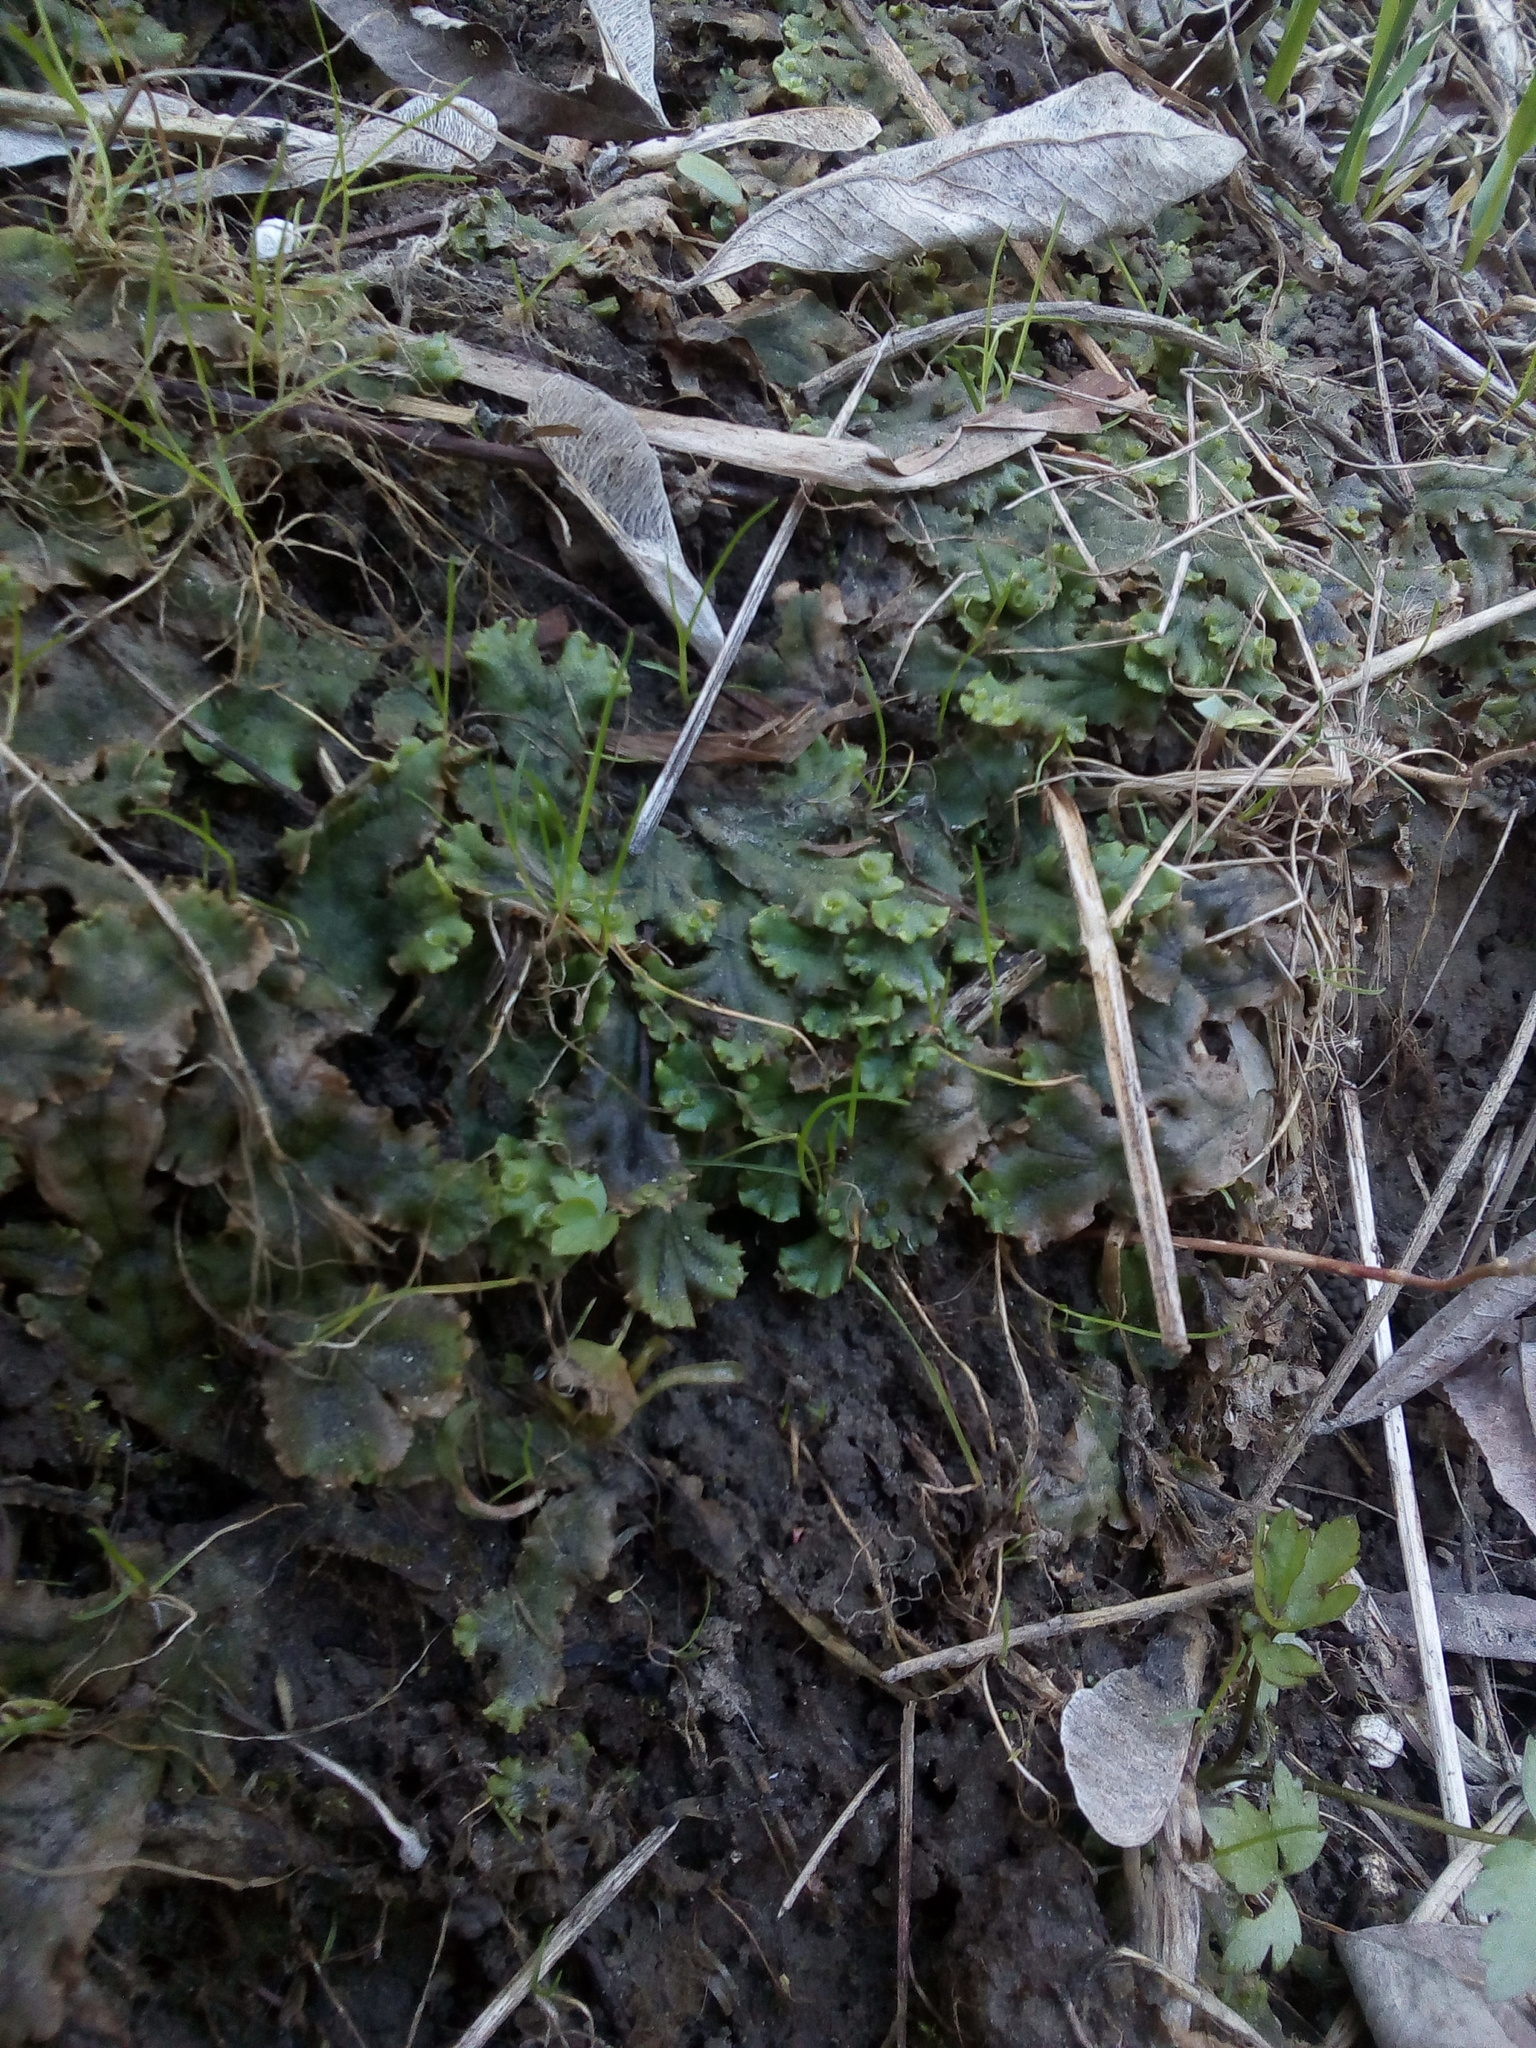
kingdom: Plantae
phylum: Marchantiophyta
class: Marchantiopsida
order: Marchantiales
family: Marchantiaceae
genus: Marchantia
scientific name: Marchantia polymorpha
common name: Common liverwort
